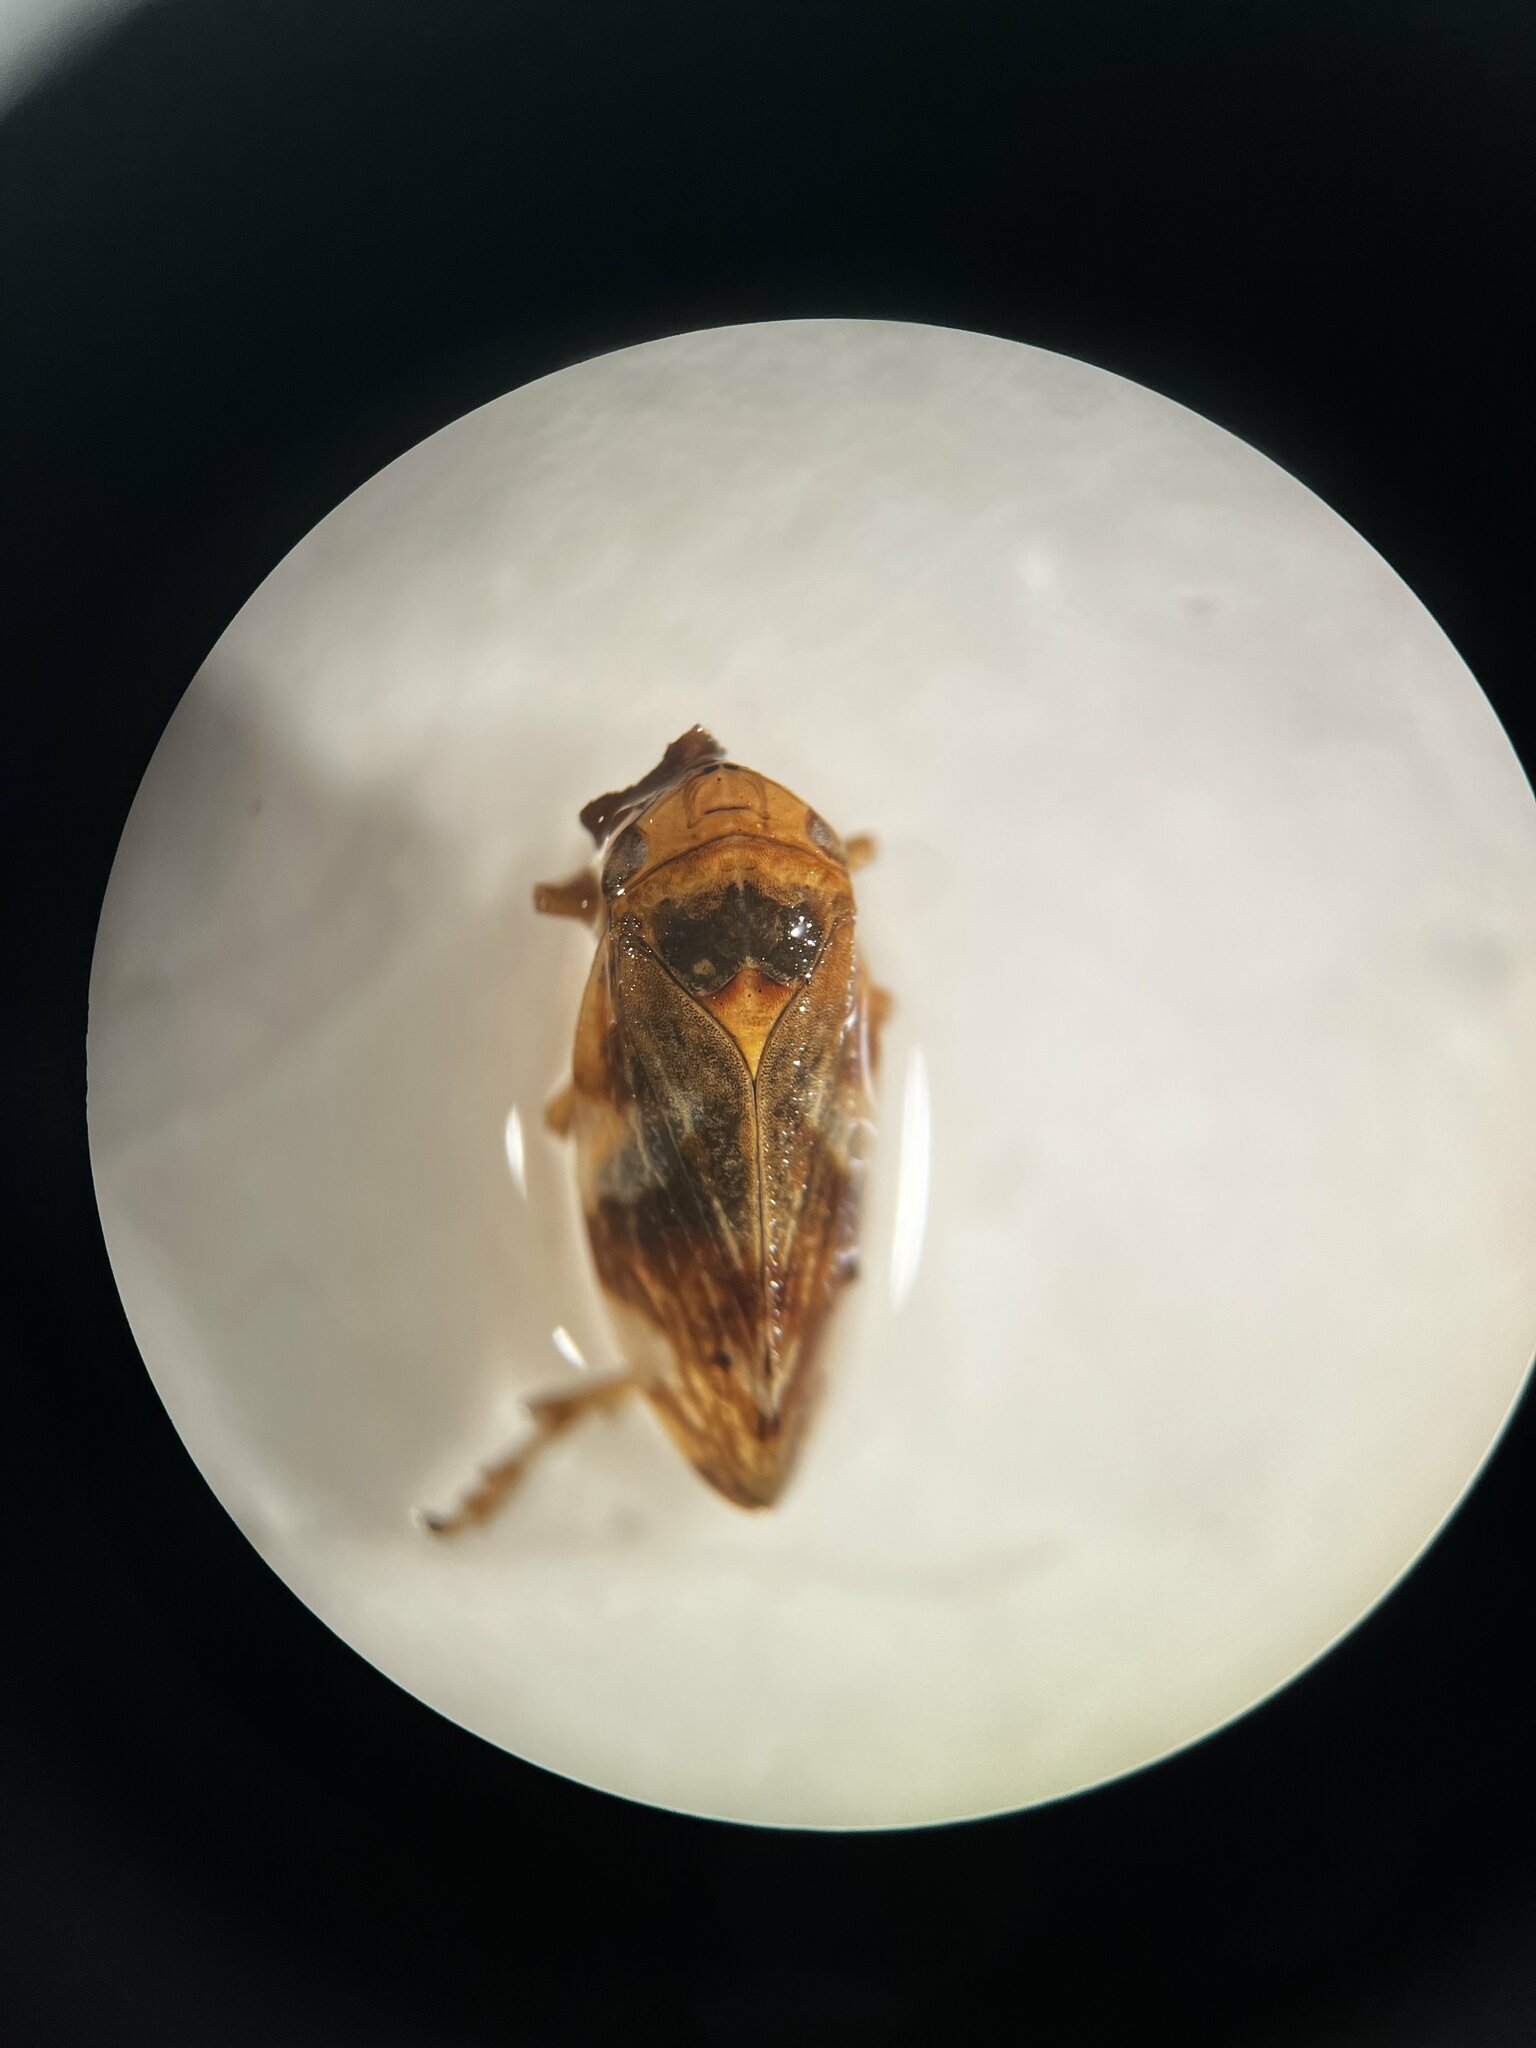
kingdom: Animalia
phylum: Arthropoda
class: Insecta
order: Hemiptera
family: Aphrophoridae
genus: Philaenus
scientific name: Philaenus spumarius
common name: Meadow spittlebug
